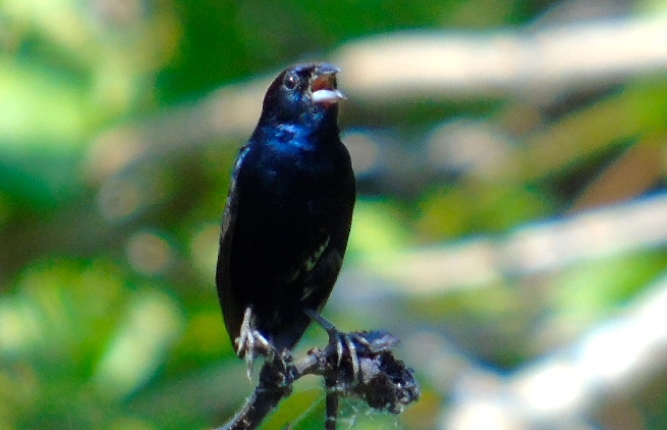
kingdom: Animalia
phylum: Chordata
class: Aves
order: Passeriformes
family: Thraupidae
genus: Volatinia
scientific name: Volatinia jacarina
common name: Blue-black grassquit
